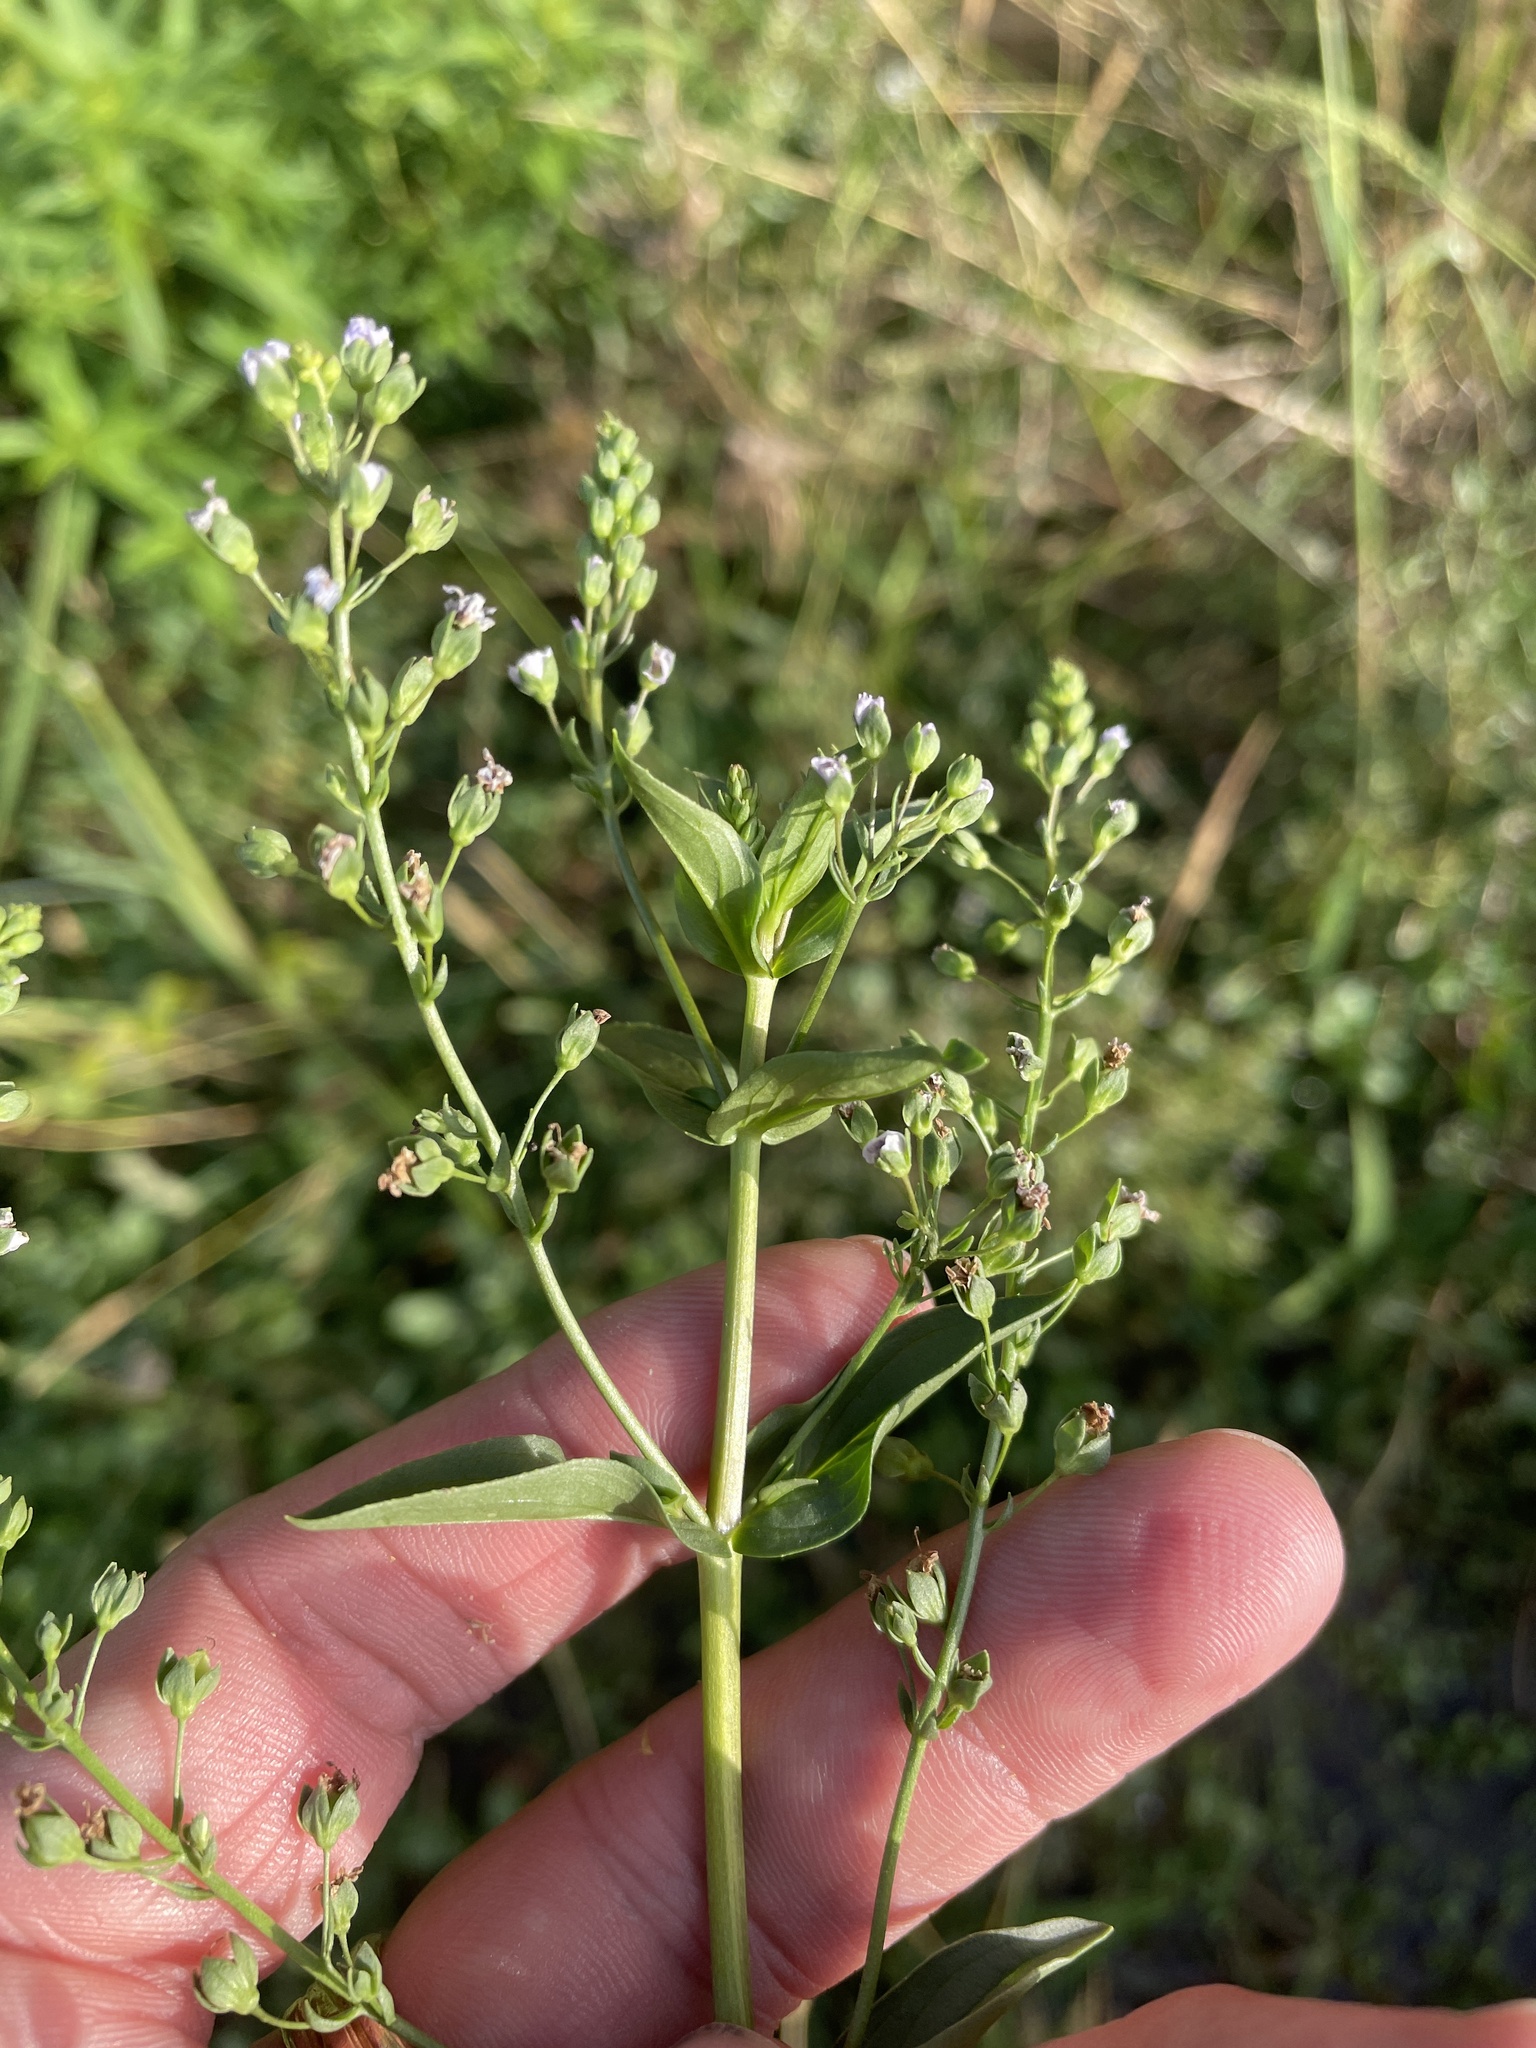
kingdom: Plantae
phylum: Tracheophyta
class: Magnoliopsida
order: Lamiales
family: Plantaginaceae
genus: Veronica
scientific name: Veronica anagallis-aquatica
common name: Water speedwell
